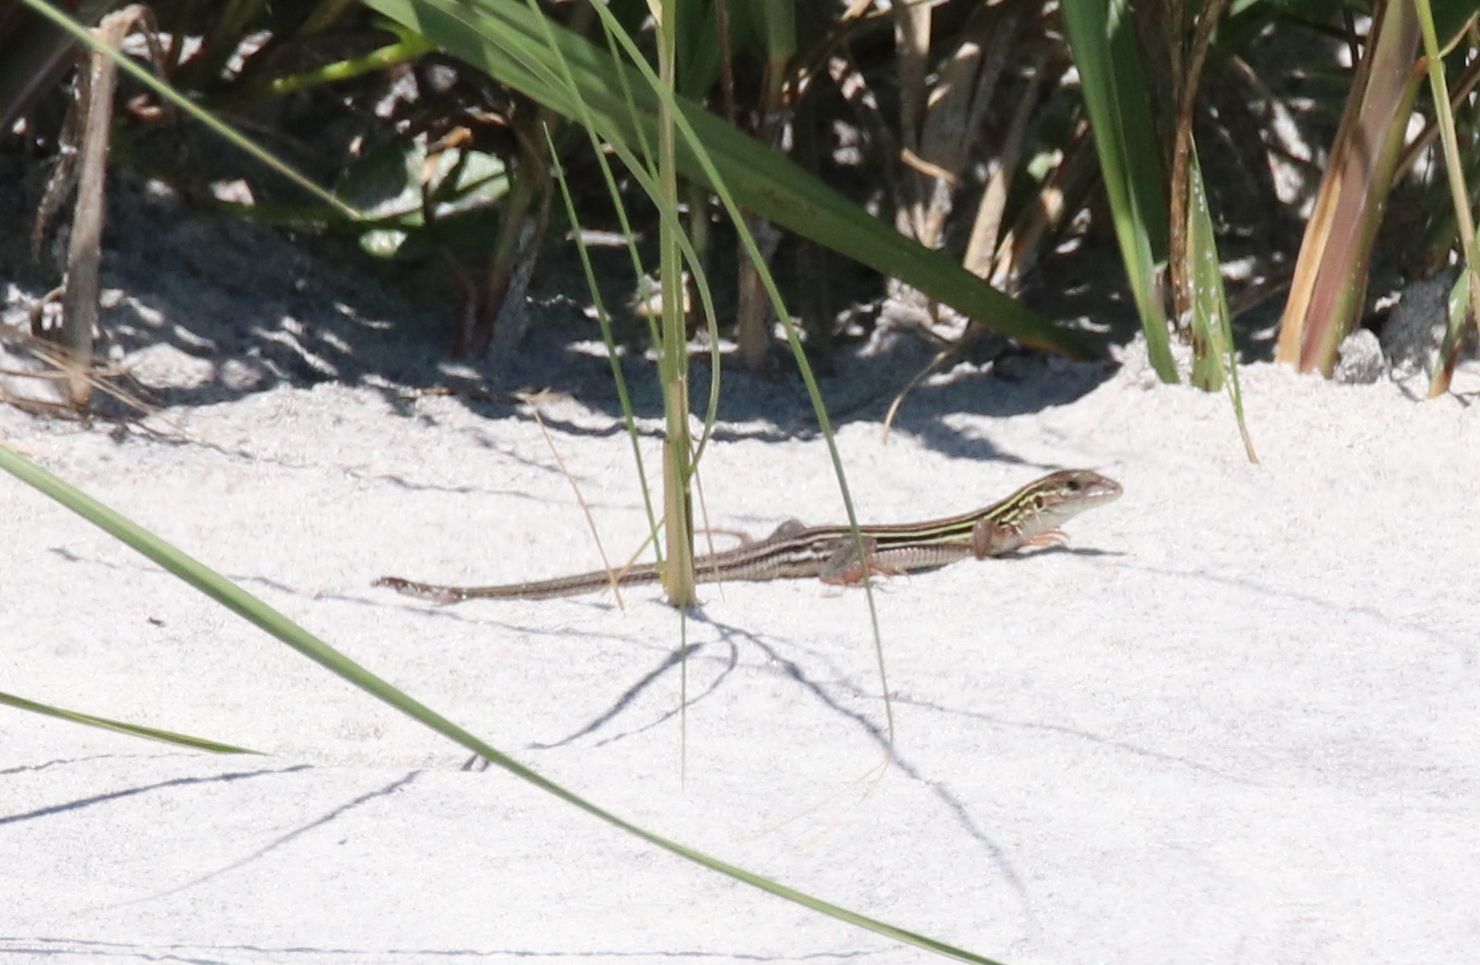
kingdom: Animalia
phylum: Chordata
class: Squamata
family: Teiidae
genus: Aspidoscelis
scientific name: Aspidoscelis sexlineatus
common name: Six-lined racerunner
